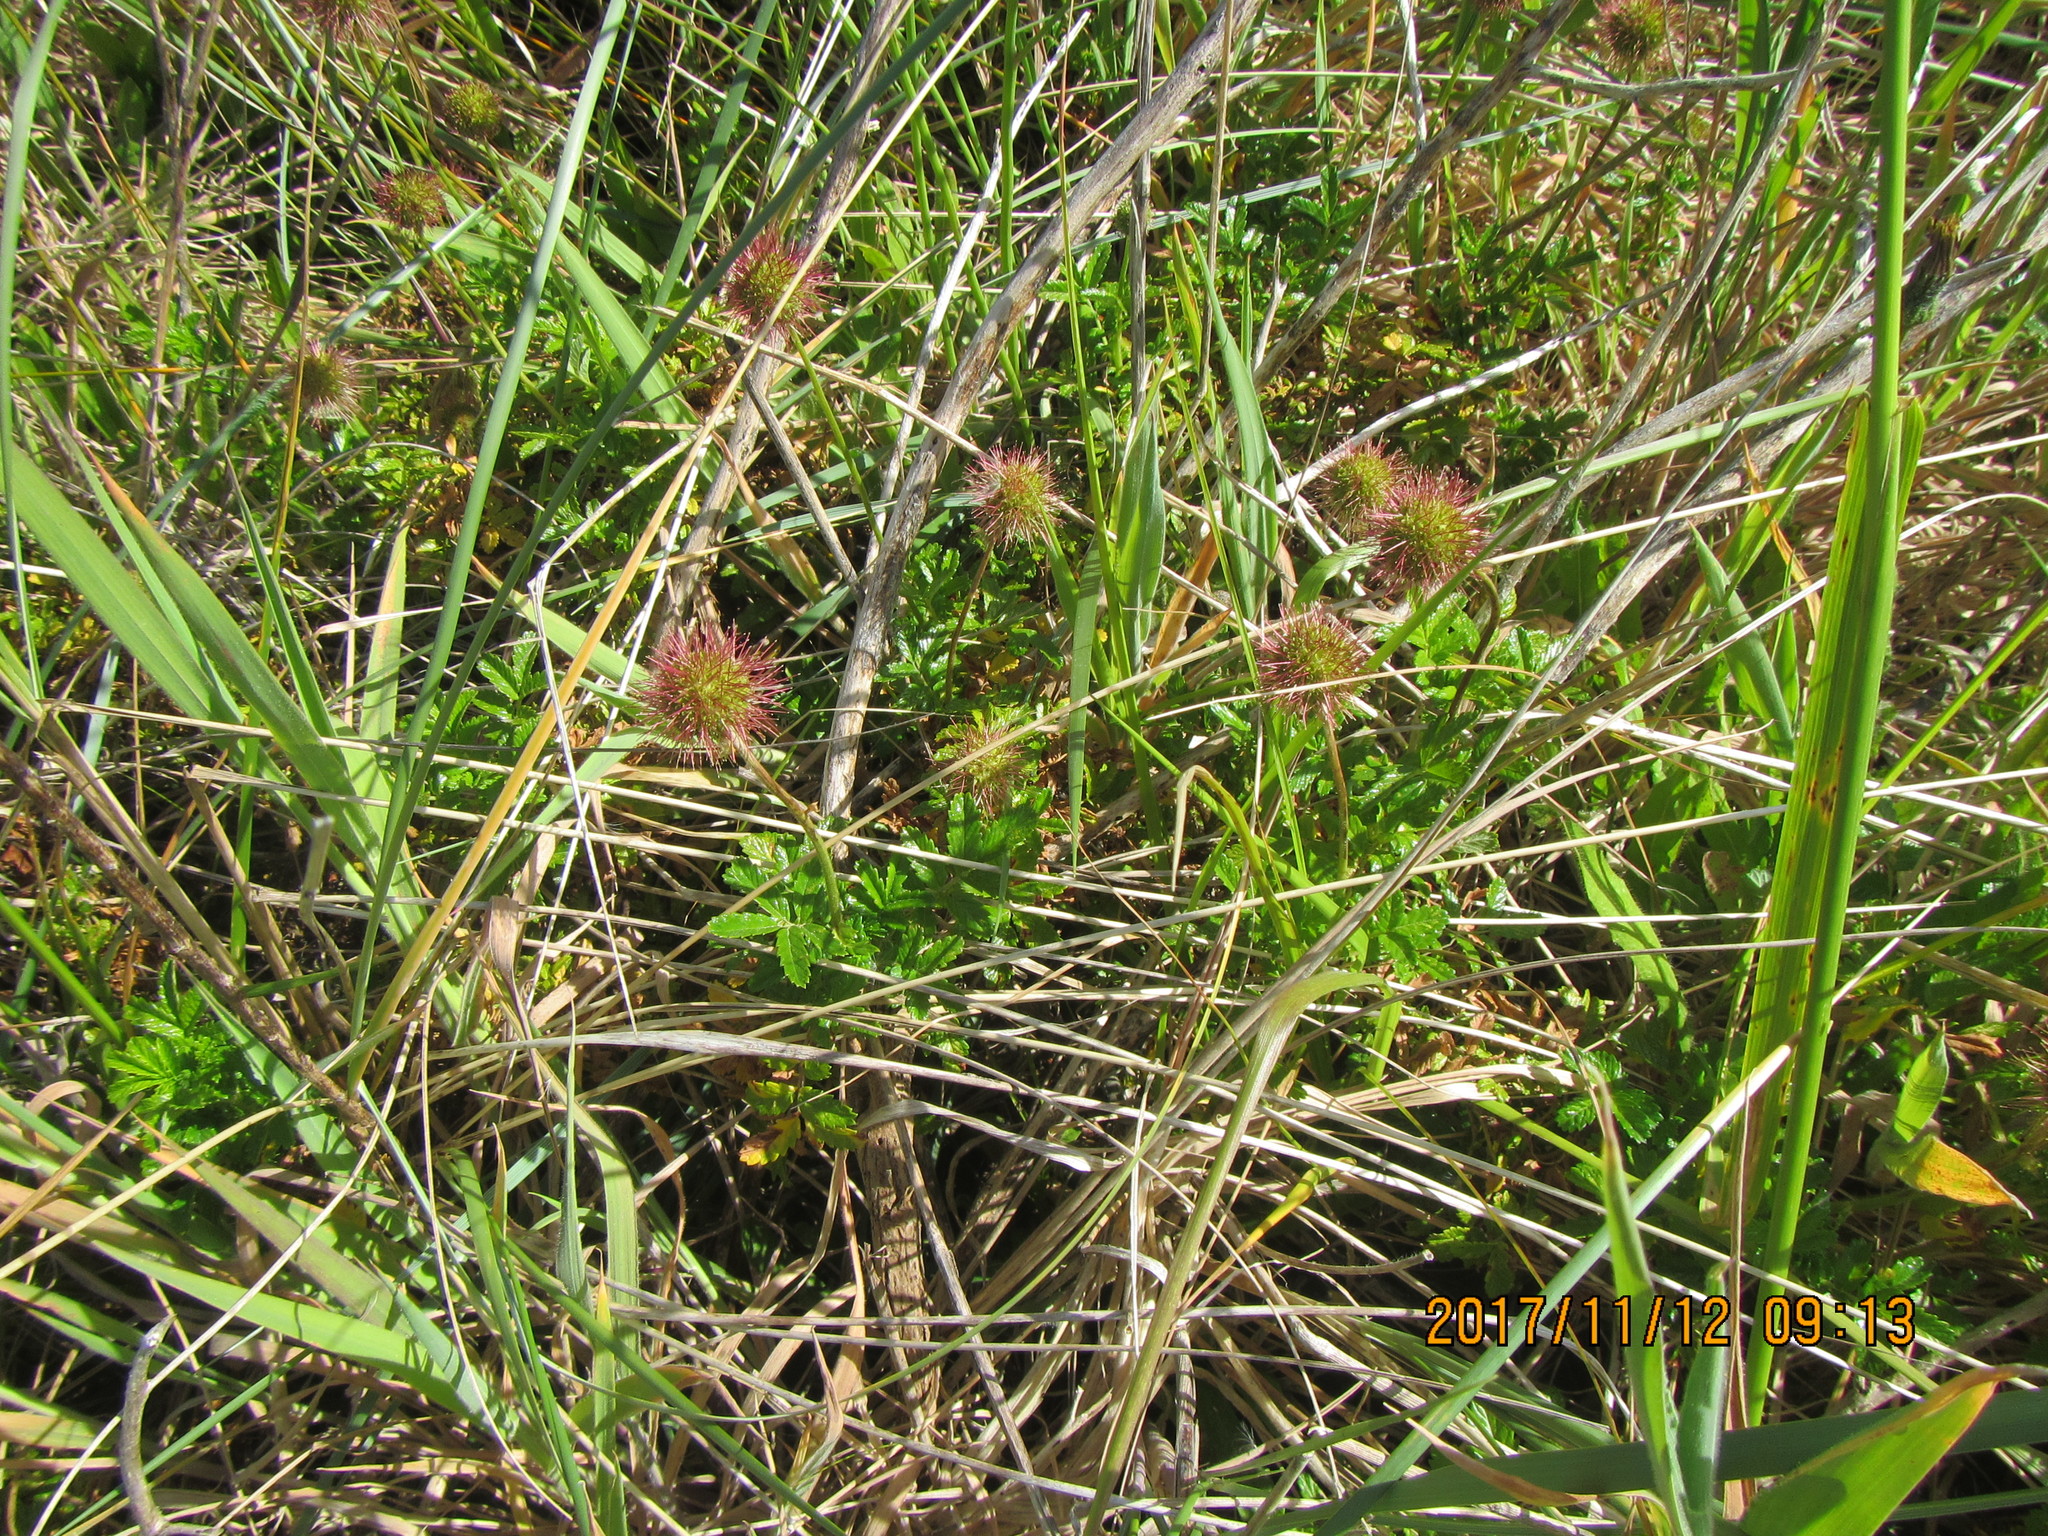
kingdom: Plantae
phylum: Tracheophyta
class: Magnoliopsida
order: Rosales
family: Rosaceae
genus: Acaena
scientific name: Acaena novae-zelandiae
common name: Pirri-pirri-bur
